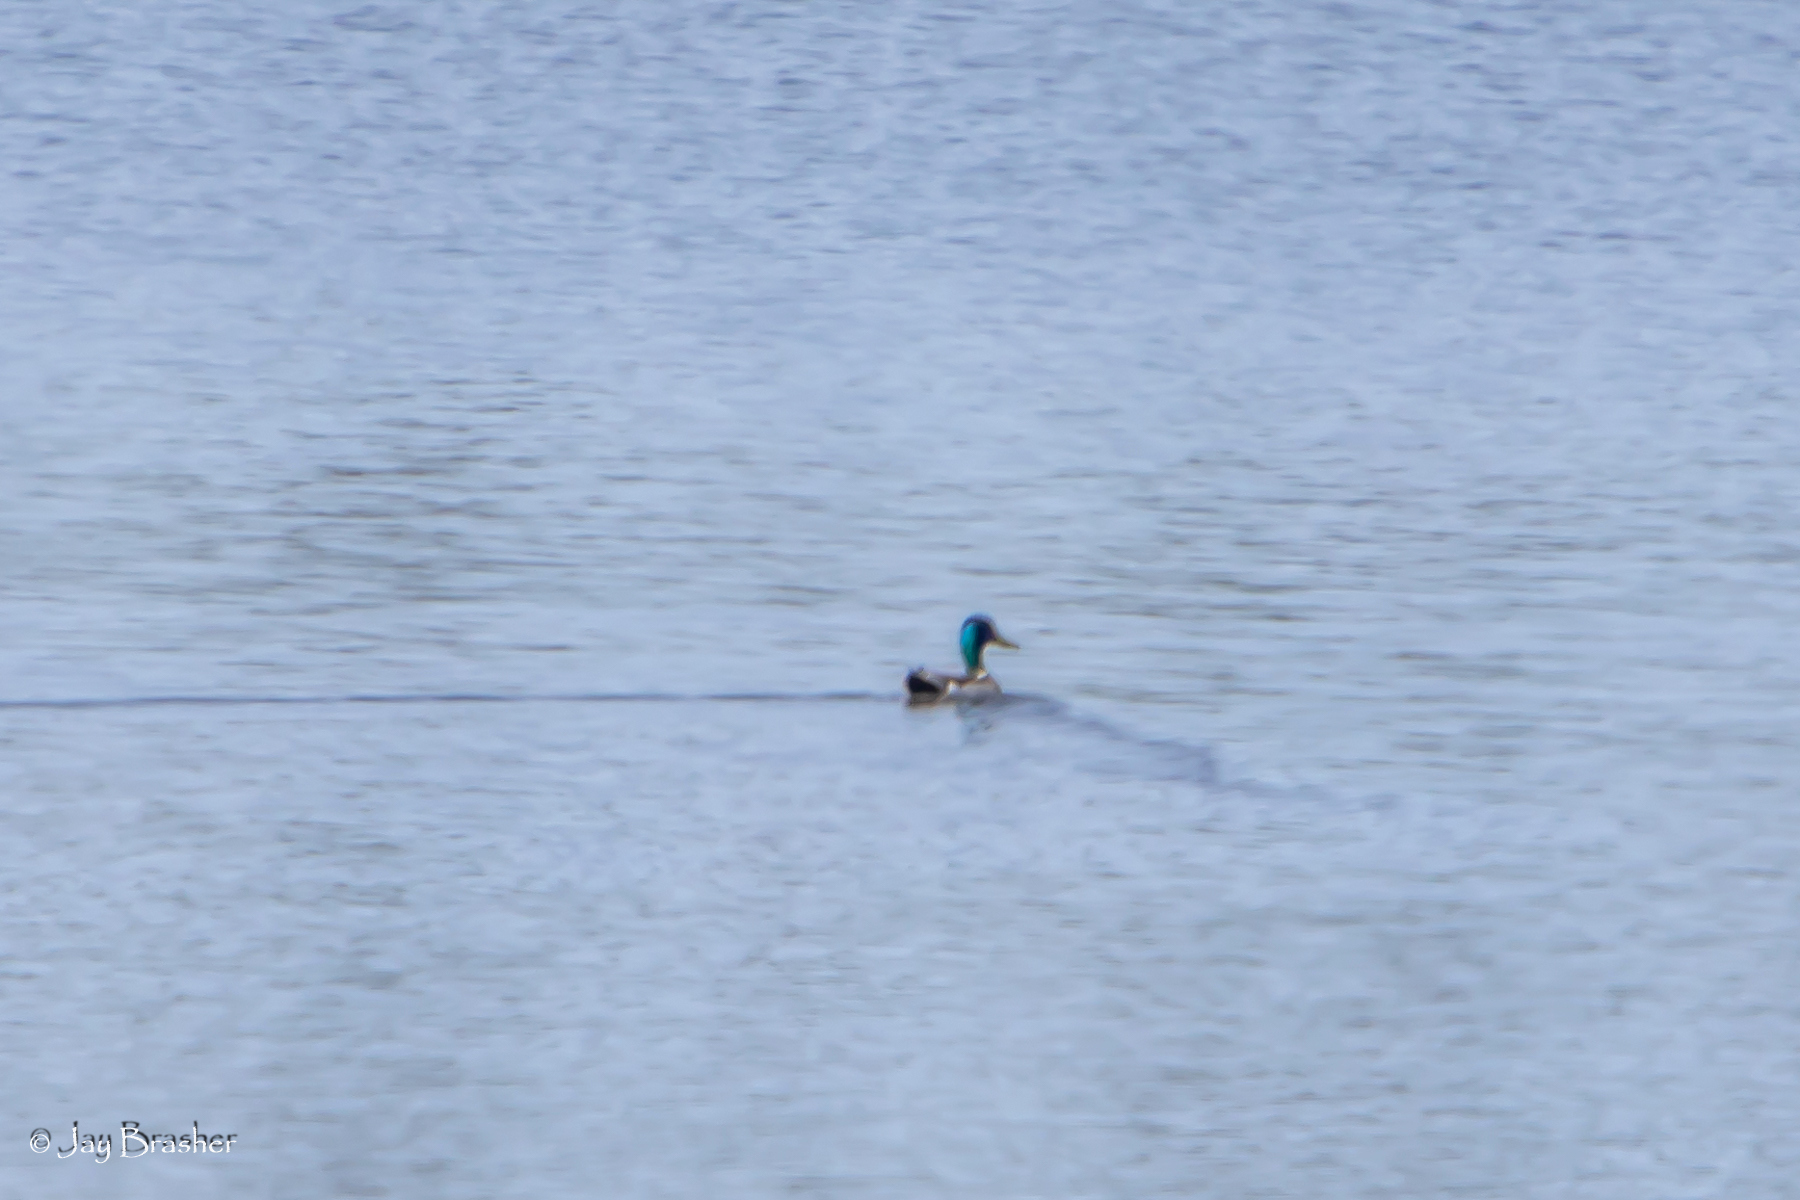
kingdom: Animalia
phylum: Chordata
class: Aves
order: Anseriformes
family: Anatidae
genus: Anas
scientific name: Anas platyrhynchos
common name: Mallard
